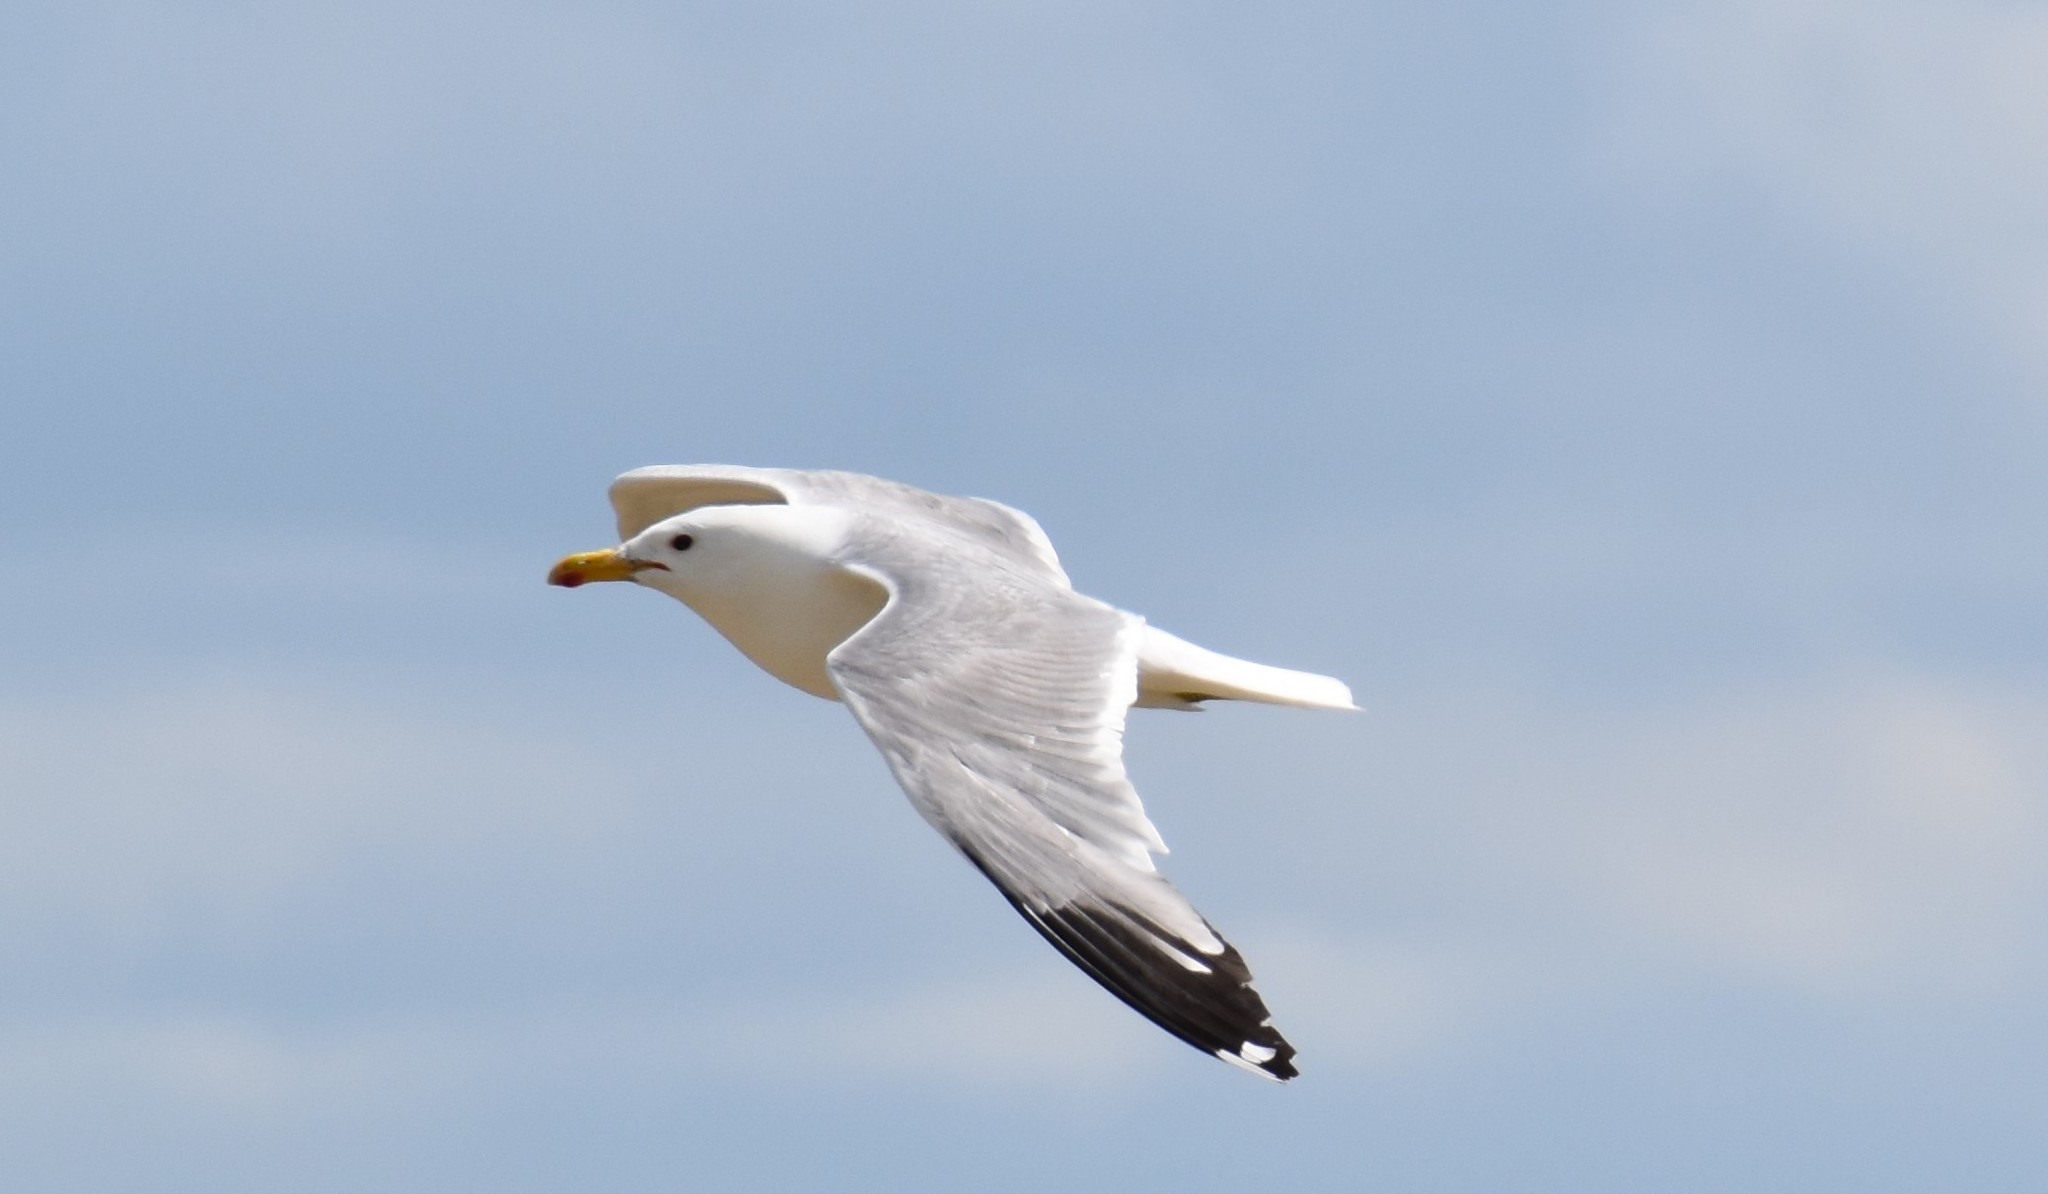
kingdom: Animalia
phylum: Chordata
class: Aves
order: Charadriiformes
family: Laridae
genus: Larus
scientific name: Larus californicus
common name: California gull
